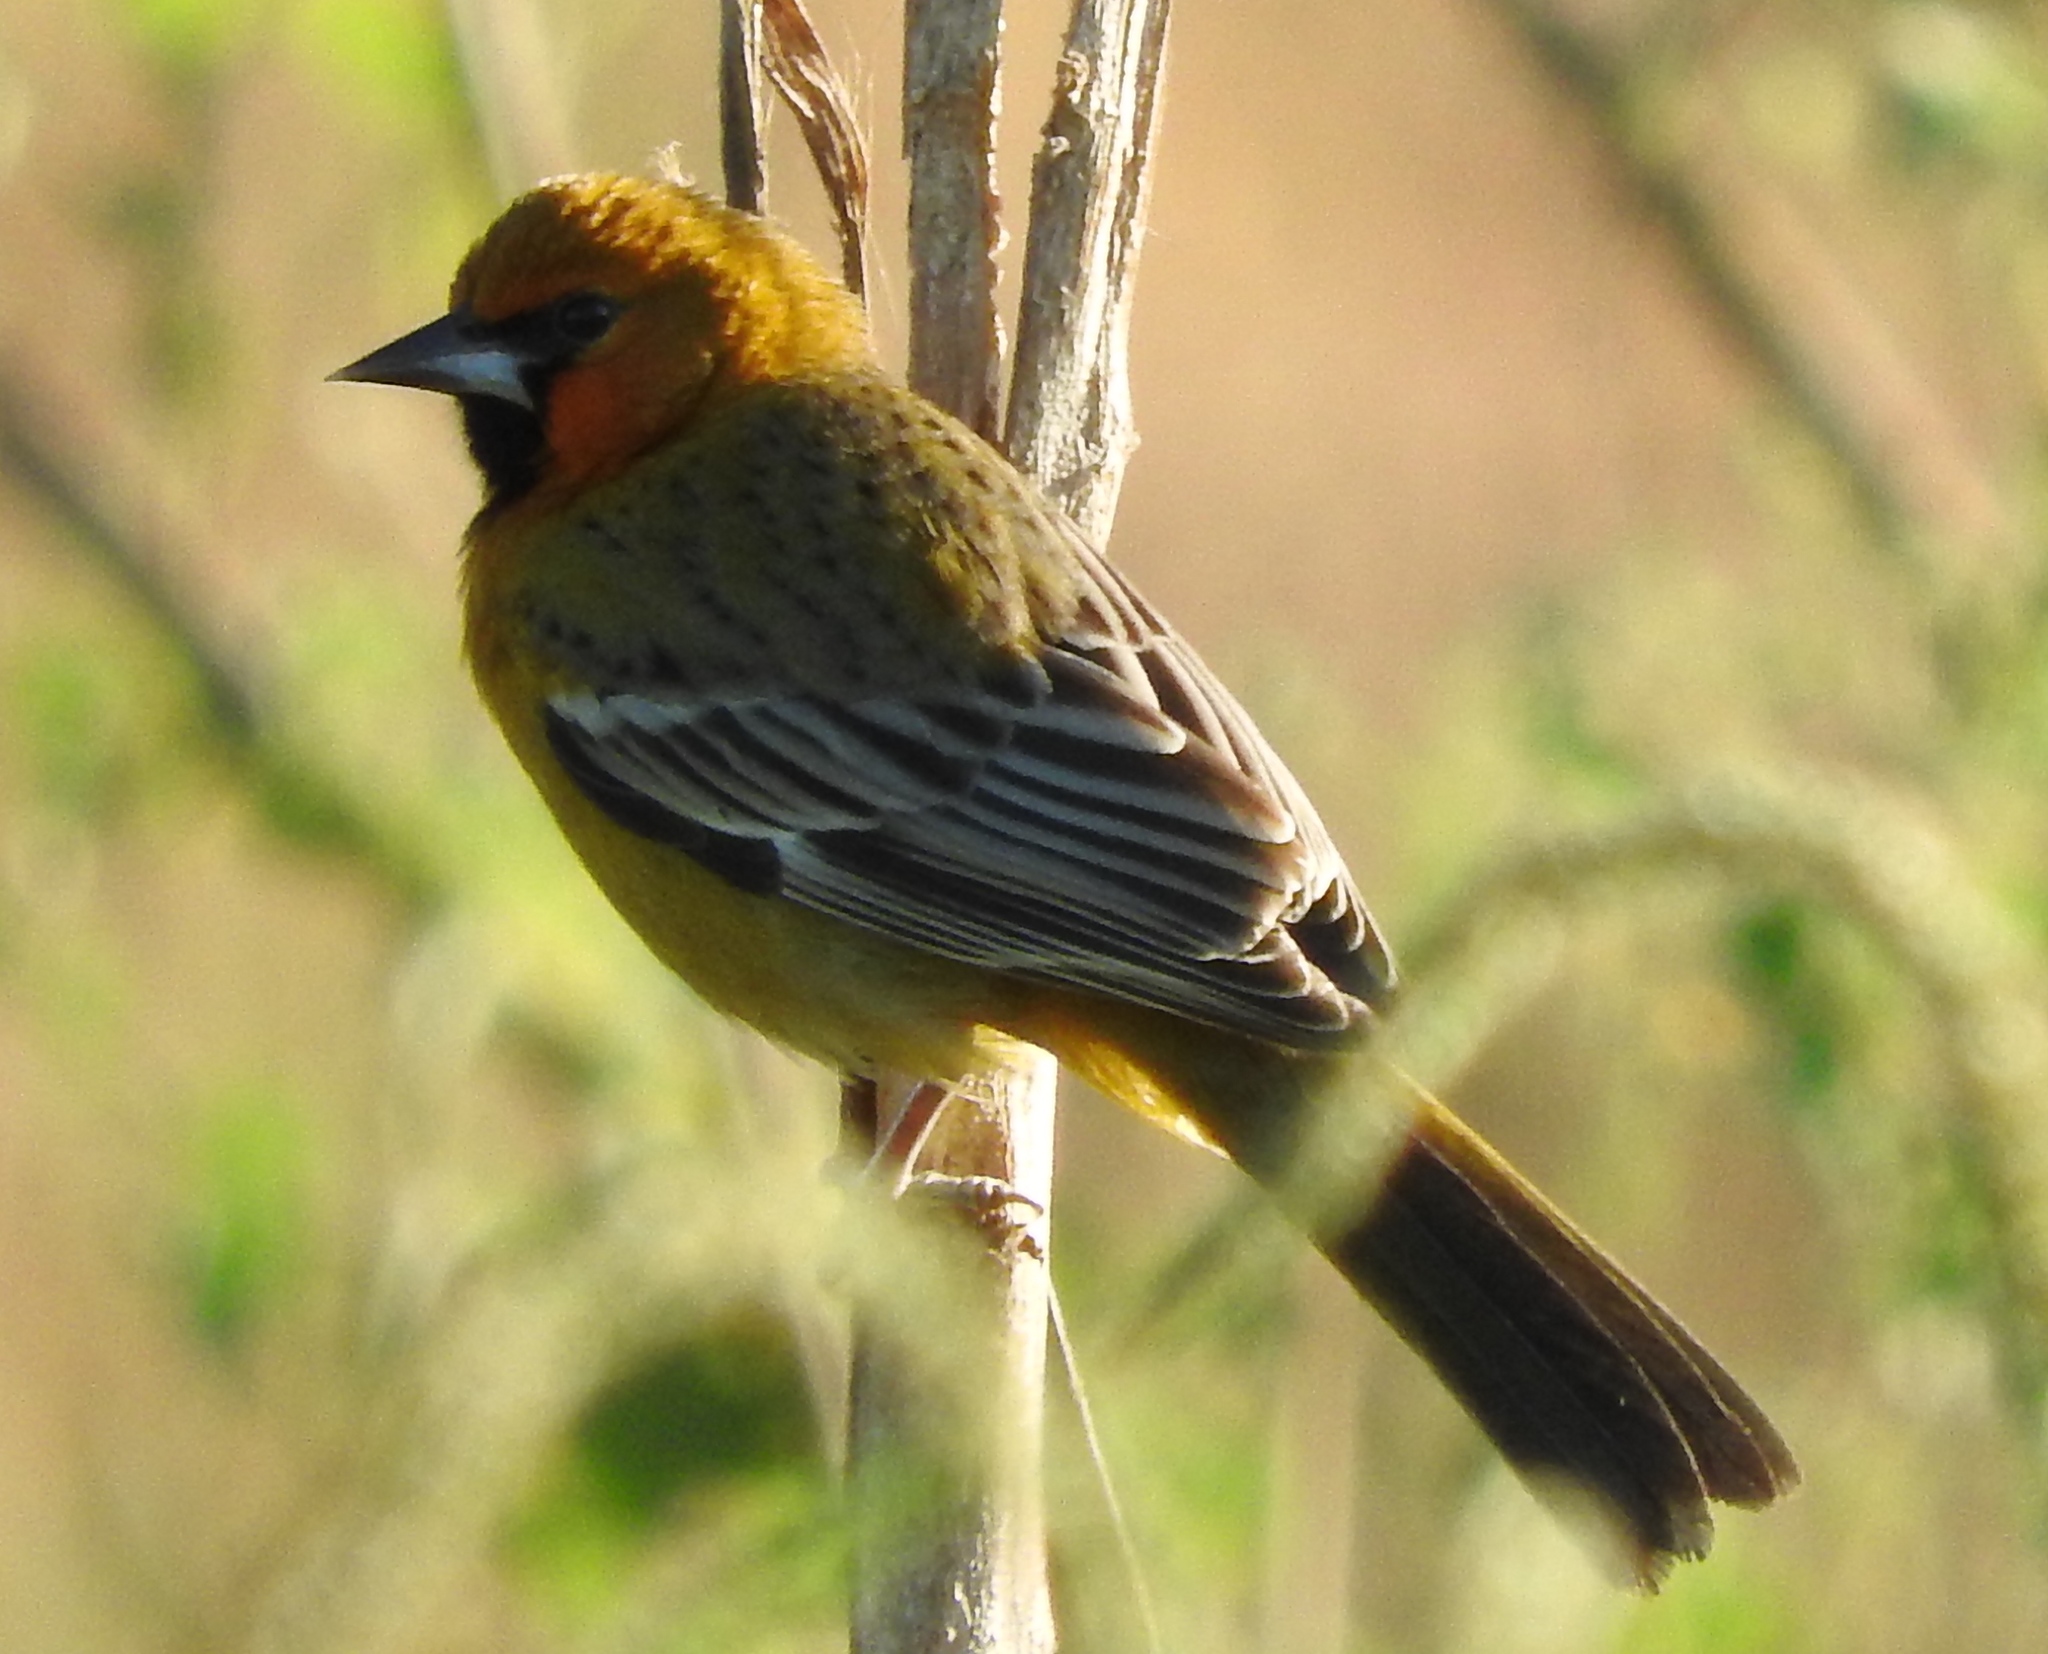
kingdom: Animalia
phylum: Chordata
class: Aves
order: Passeriformes
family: Icteridae
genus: Icterus
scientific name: Icterus pustulatus
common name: Streak-backed oriole
